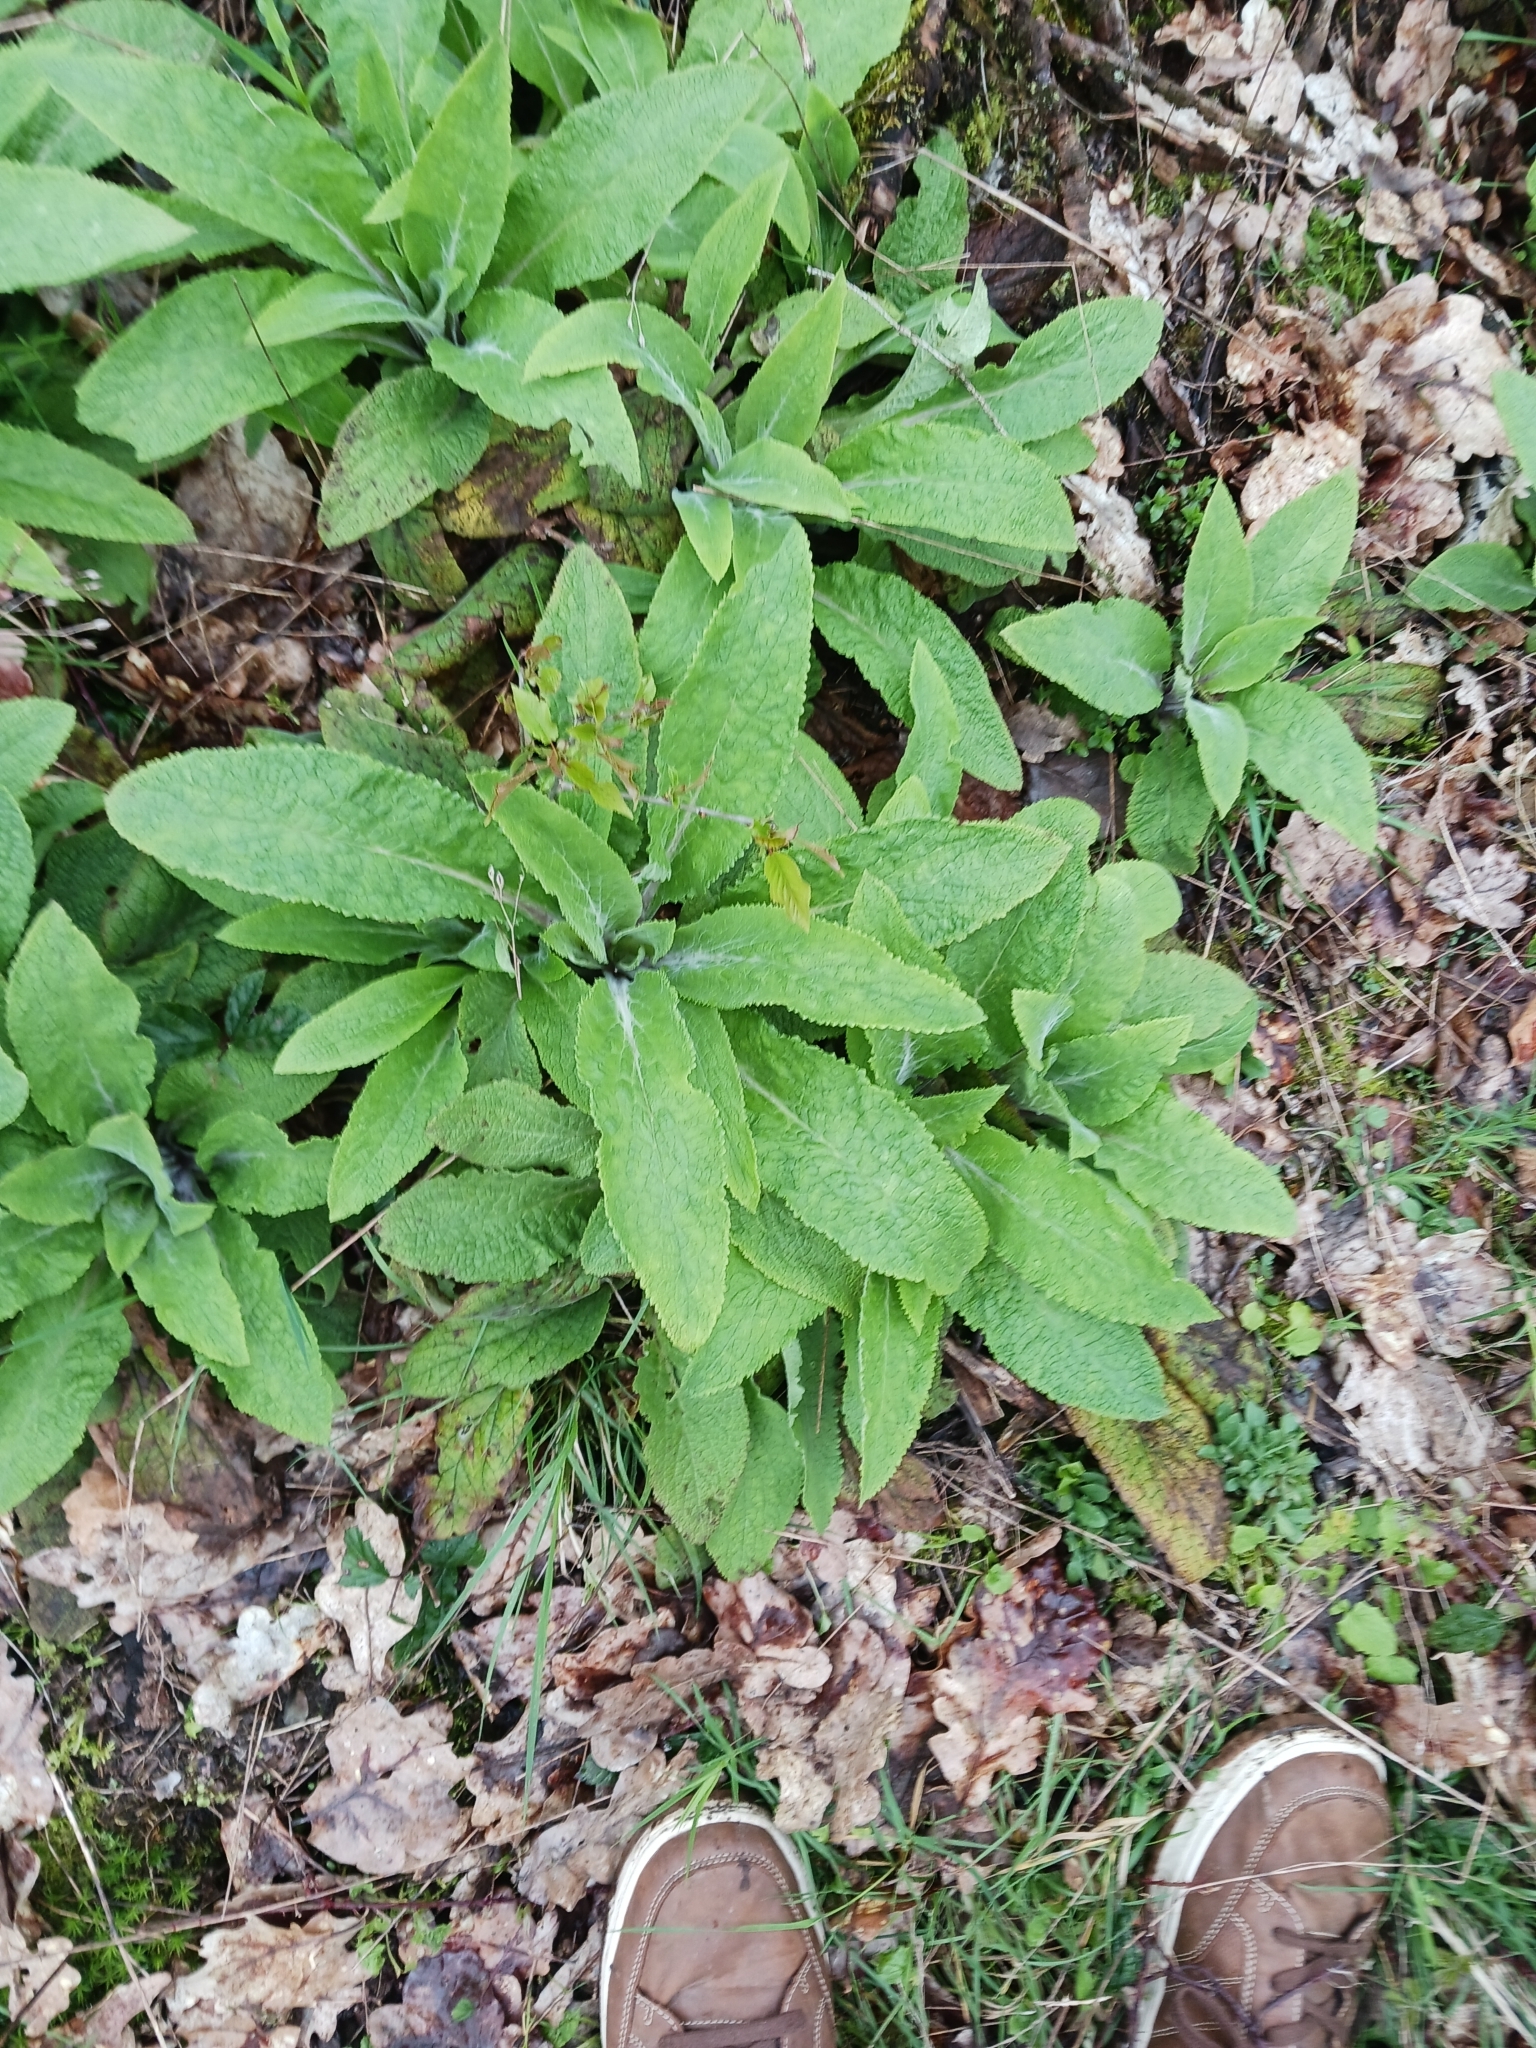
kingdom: Plantae
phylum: Tracheophyta
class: Magnoliopsida
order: Lamiales
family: Plantaginaceae
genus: Digitalis
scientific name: Digitalis purpurea
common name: Foxglove
